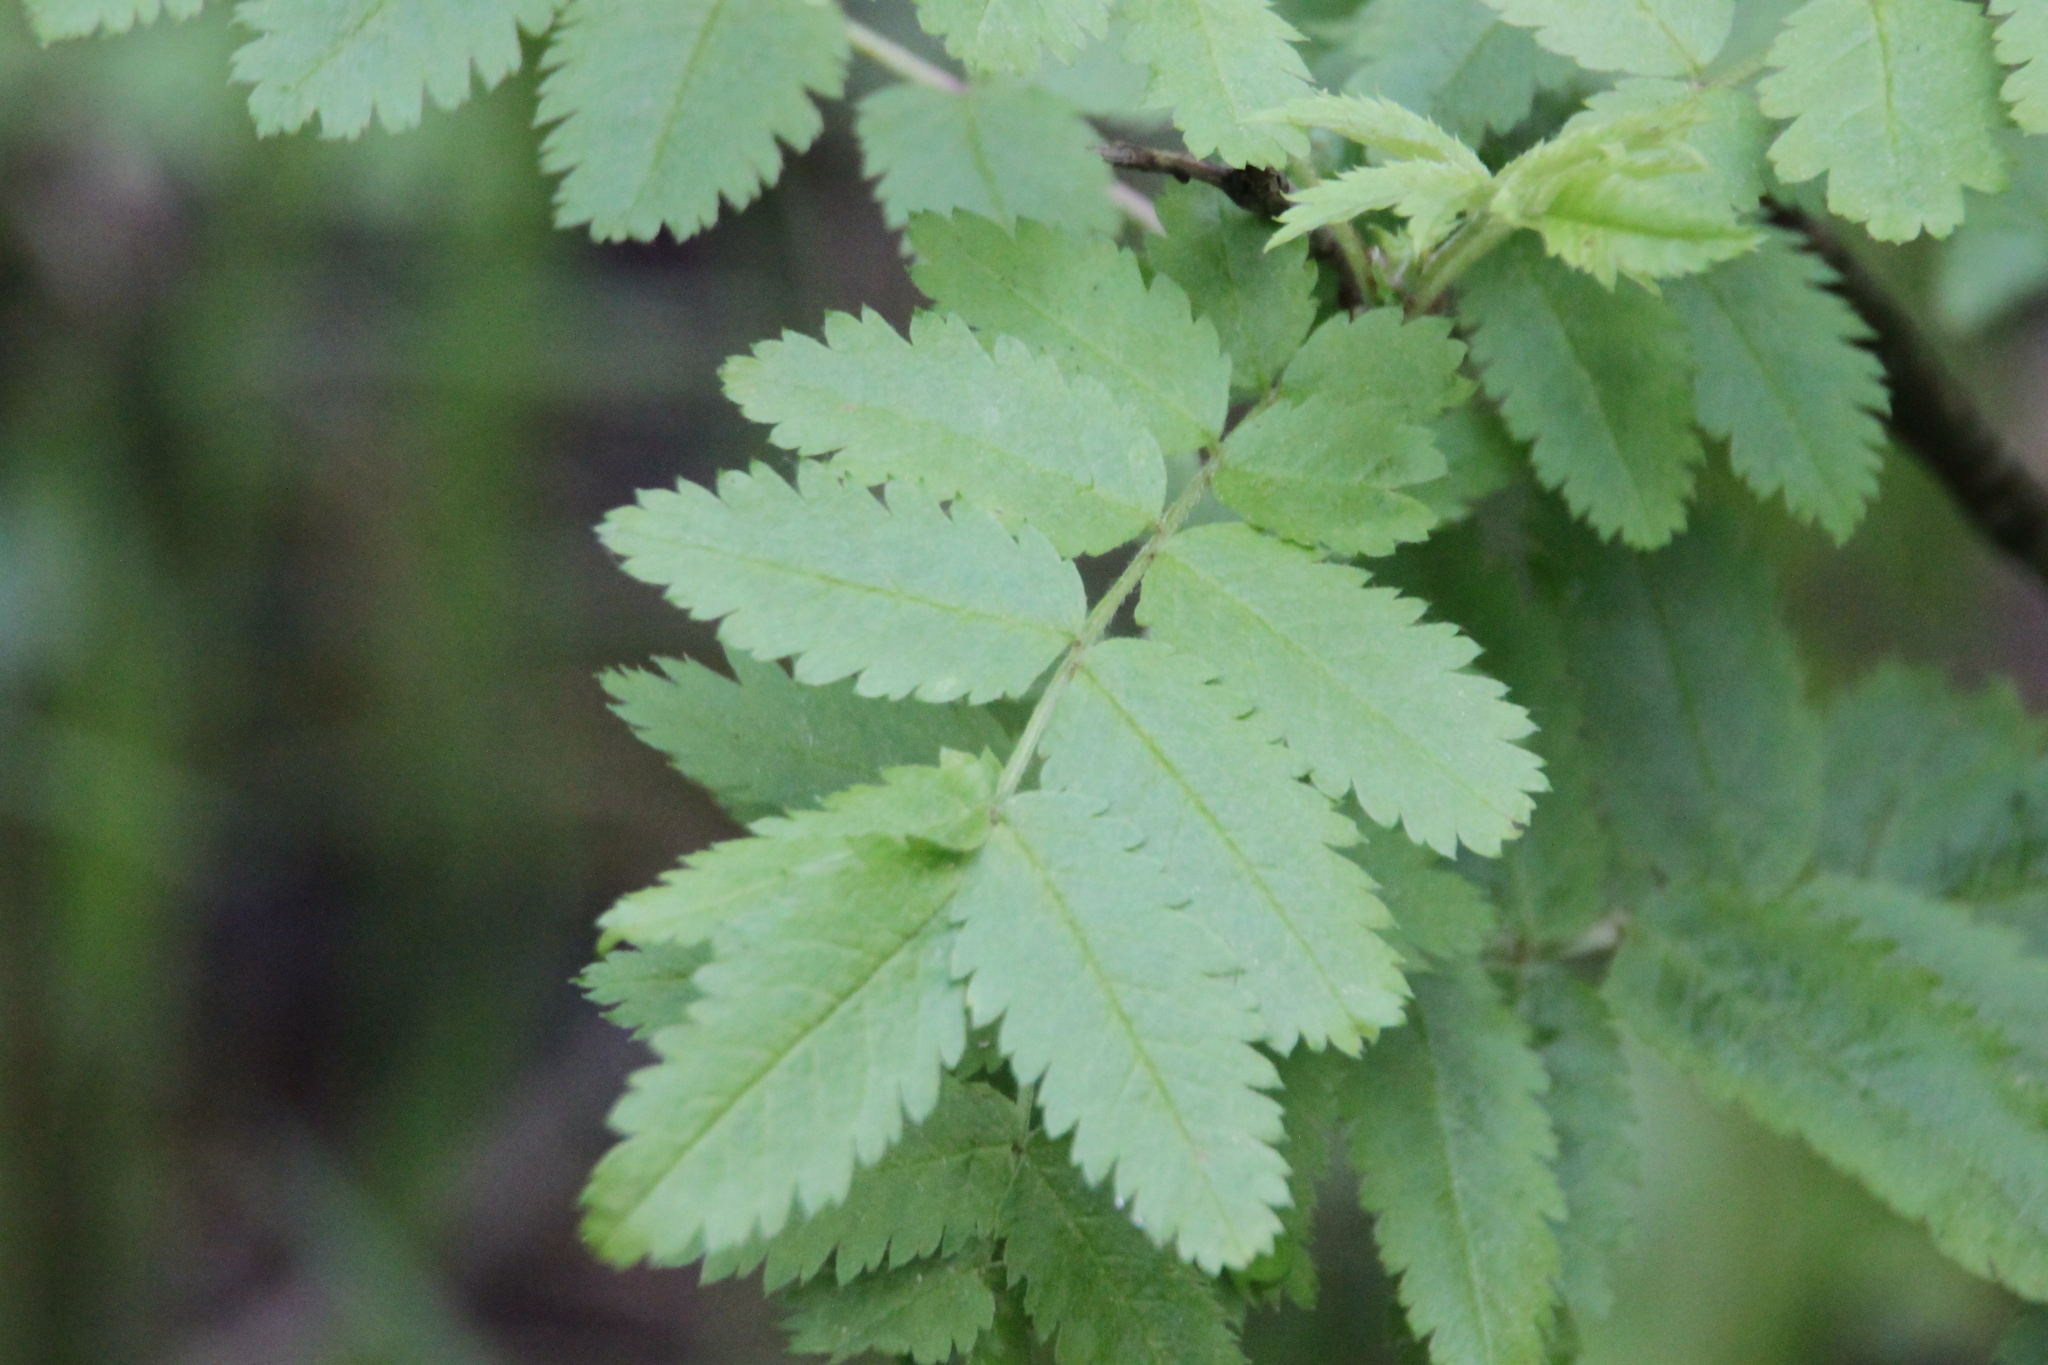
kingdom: Plantae
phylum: Tracheophyta
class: Magnoliopsida
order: Rosales
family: Rosaceae
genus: Sorbus
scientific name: Sorbus aucuparia
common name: Rowan
